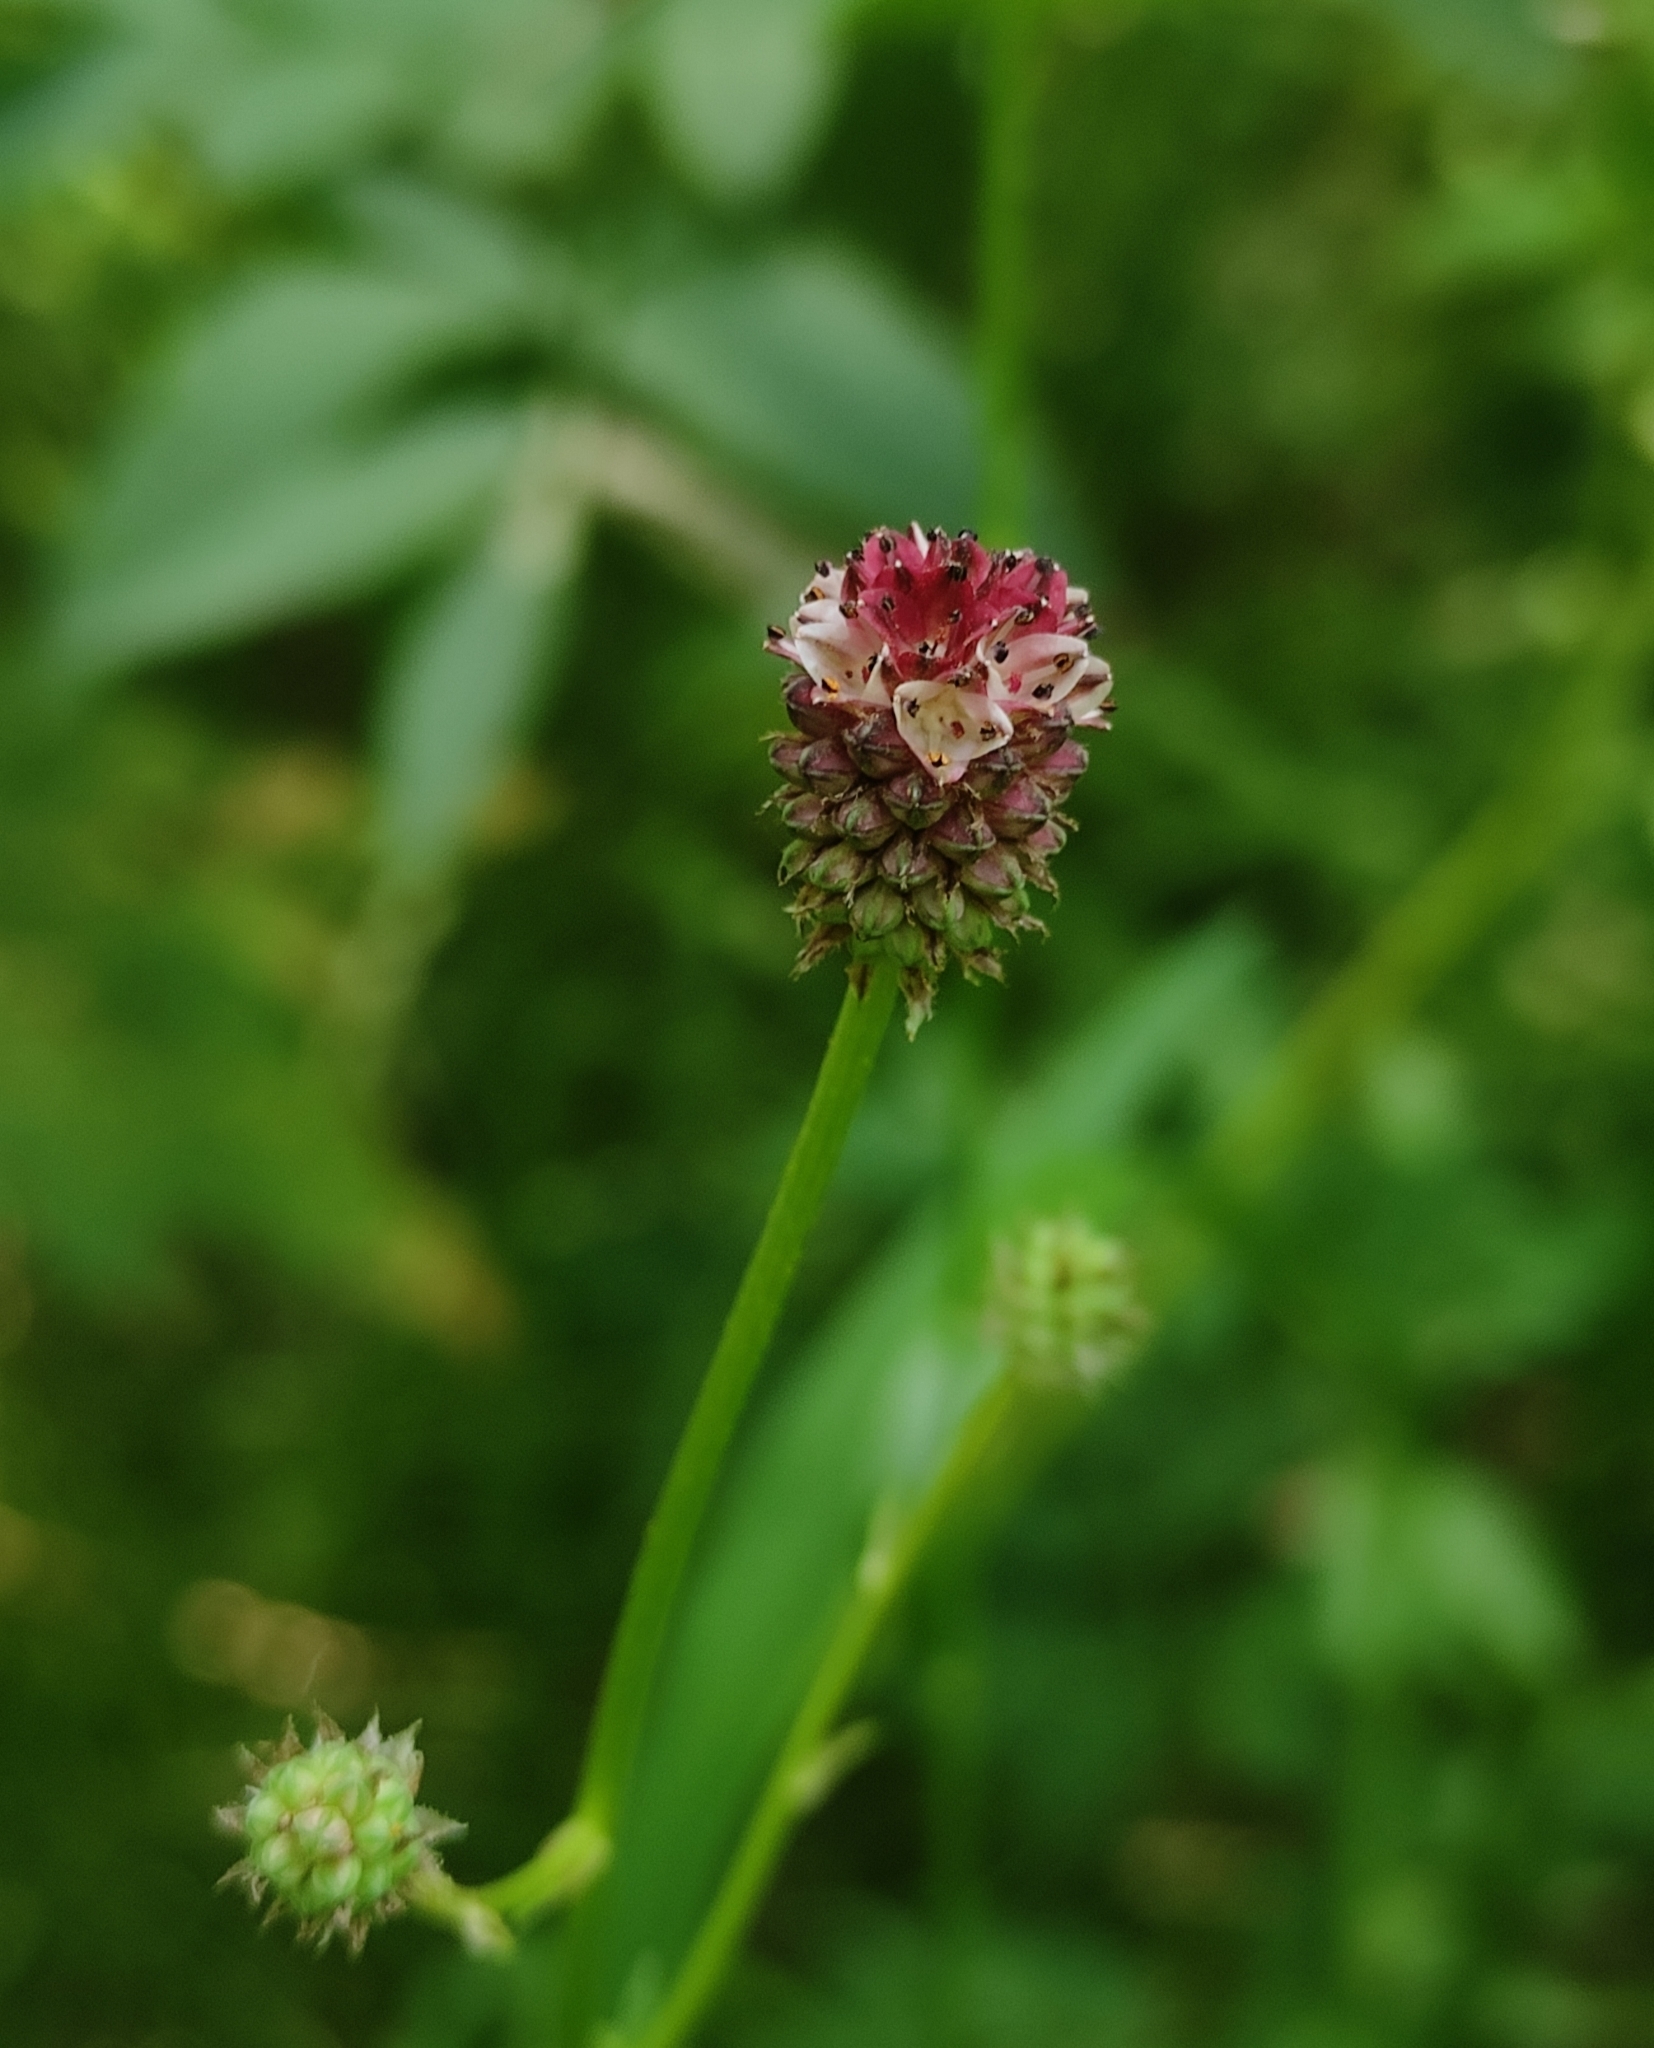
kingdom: Plantae
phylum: Tracheophyta
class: Magnoliopsida
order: Rosales
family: Rosaceae
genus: Sanguisorba
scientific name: Sanguisorba officinalis
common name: Great burnet
